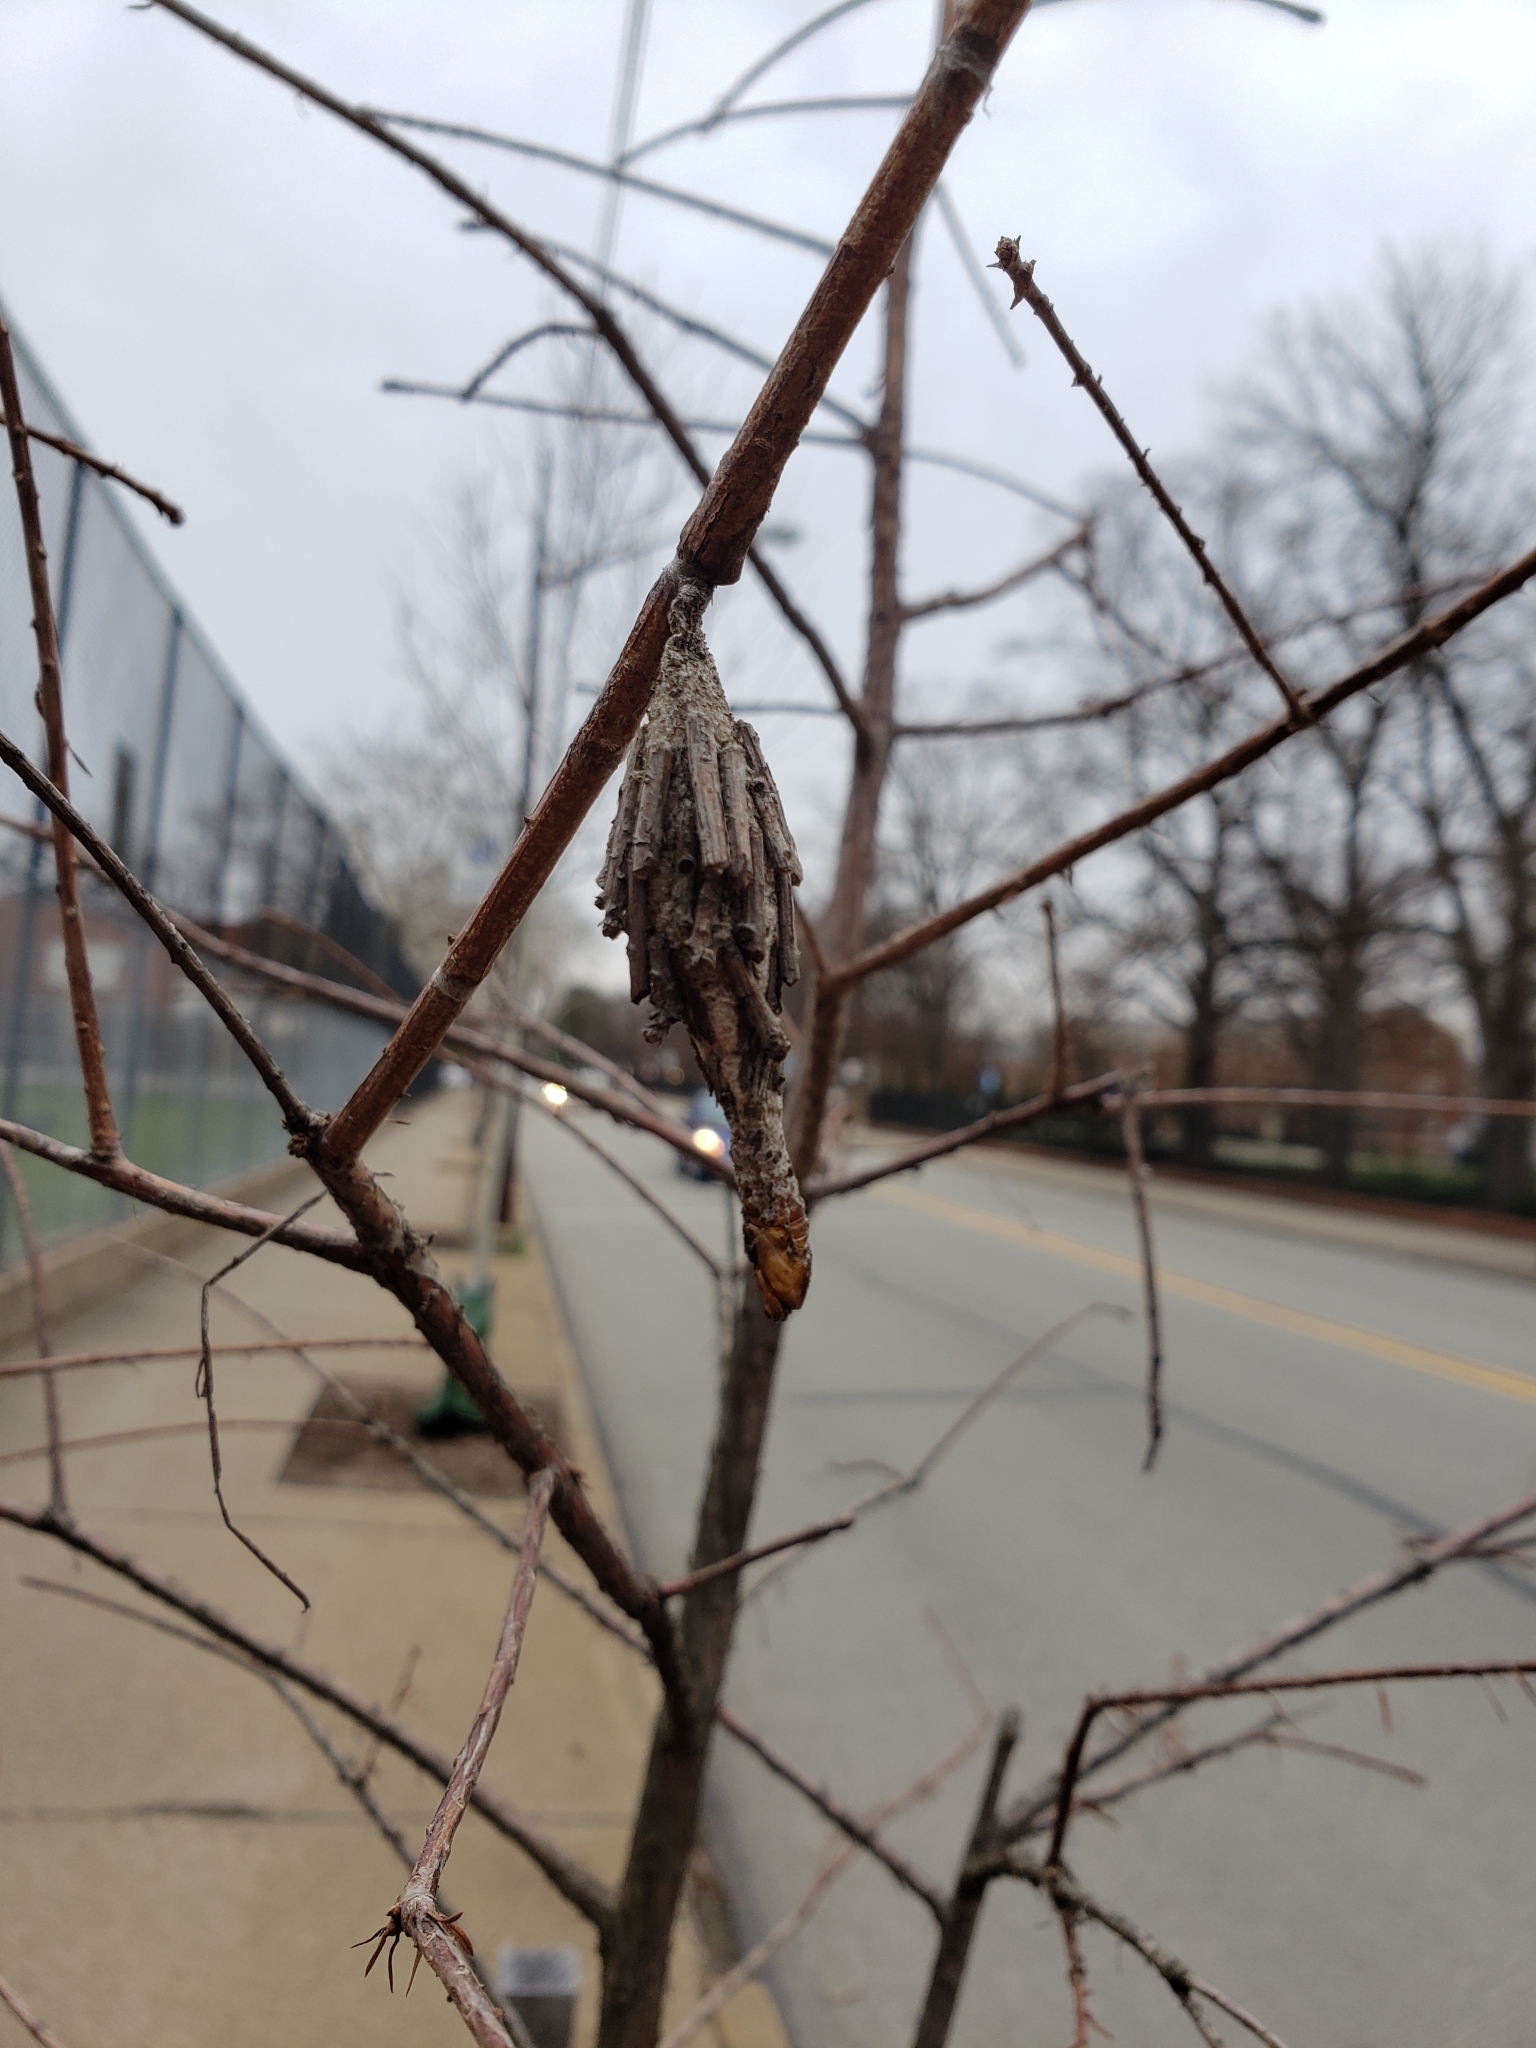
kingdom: Animalia
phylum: Arthropoda
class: Insecta
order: Lepidoptera
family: Psychidae
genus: Thyridopteryx
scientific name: Thyridopteryx ephemeraeformis
